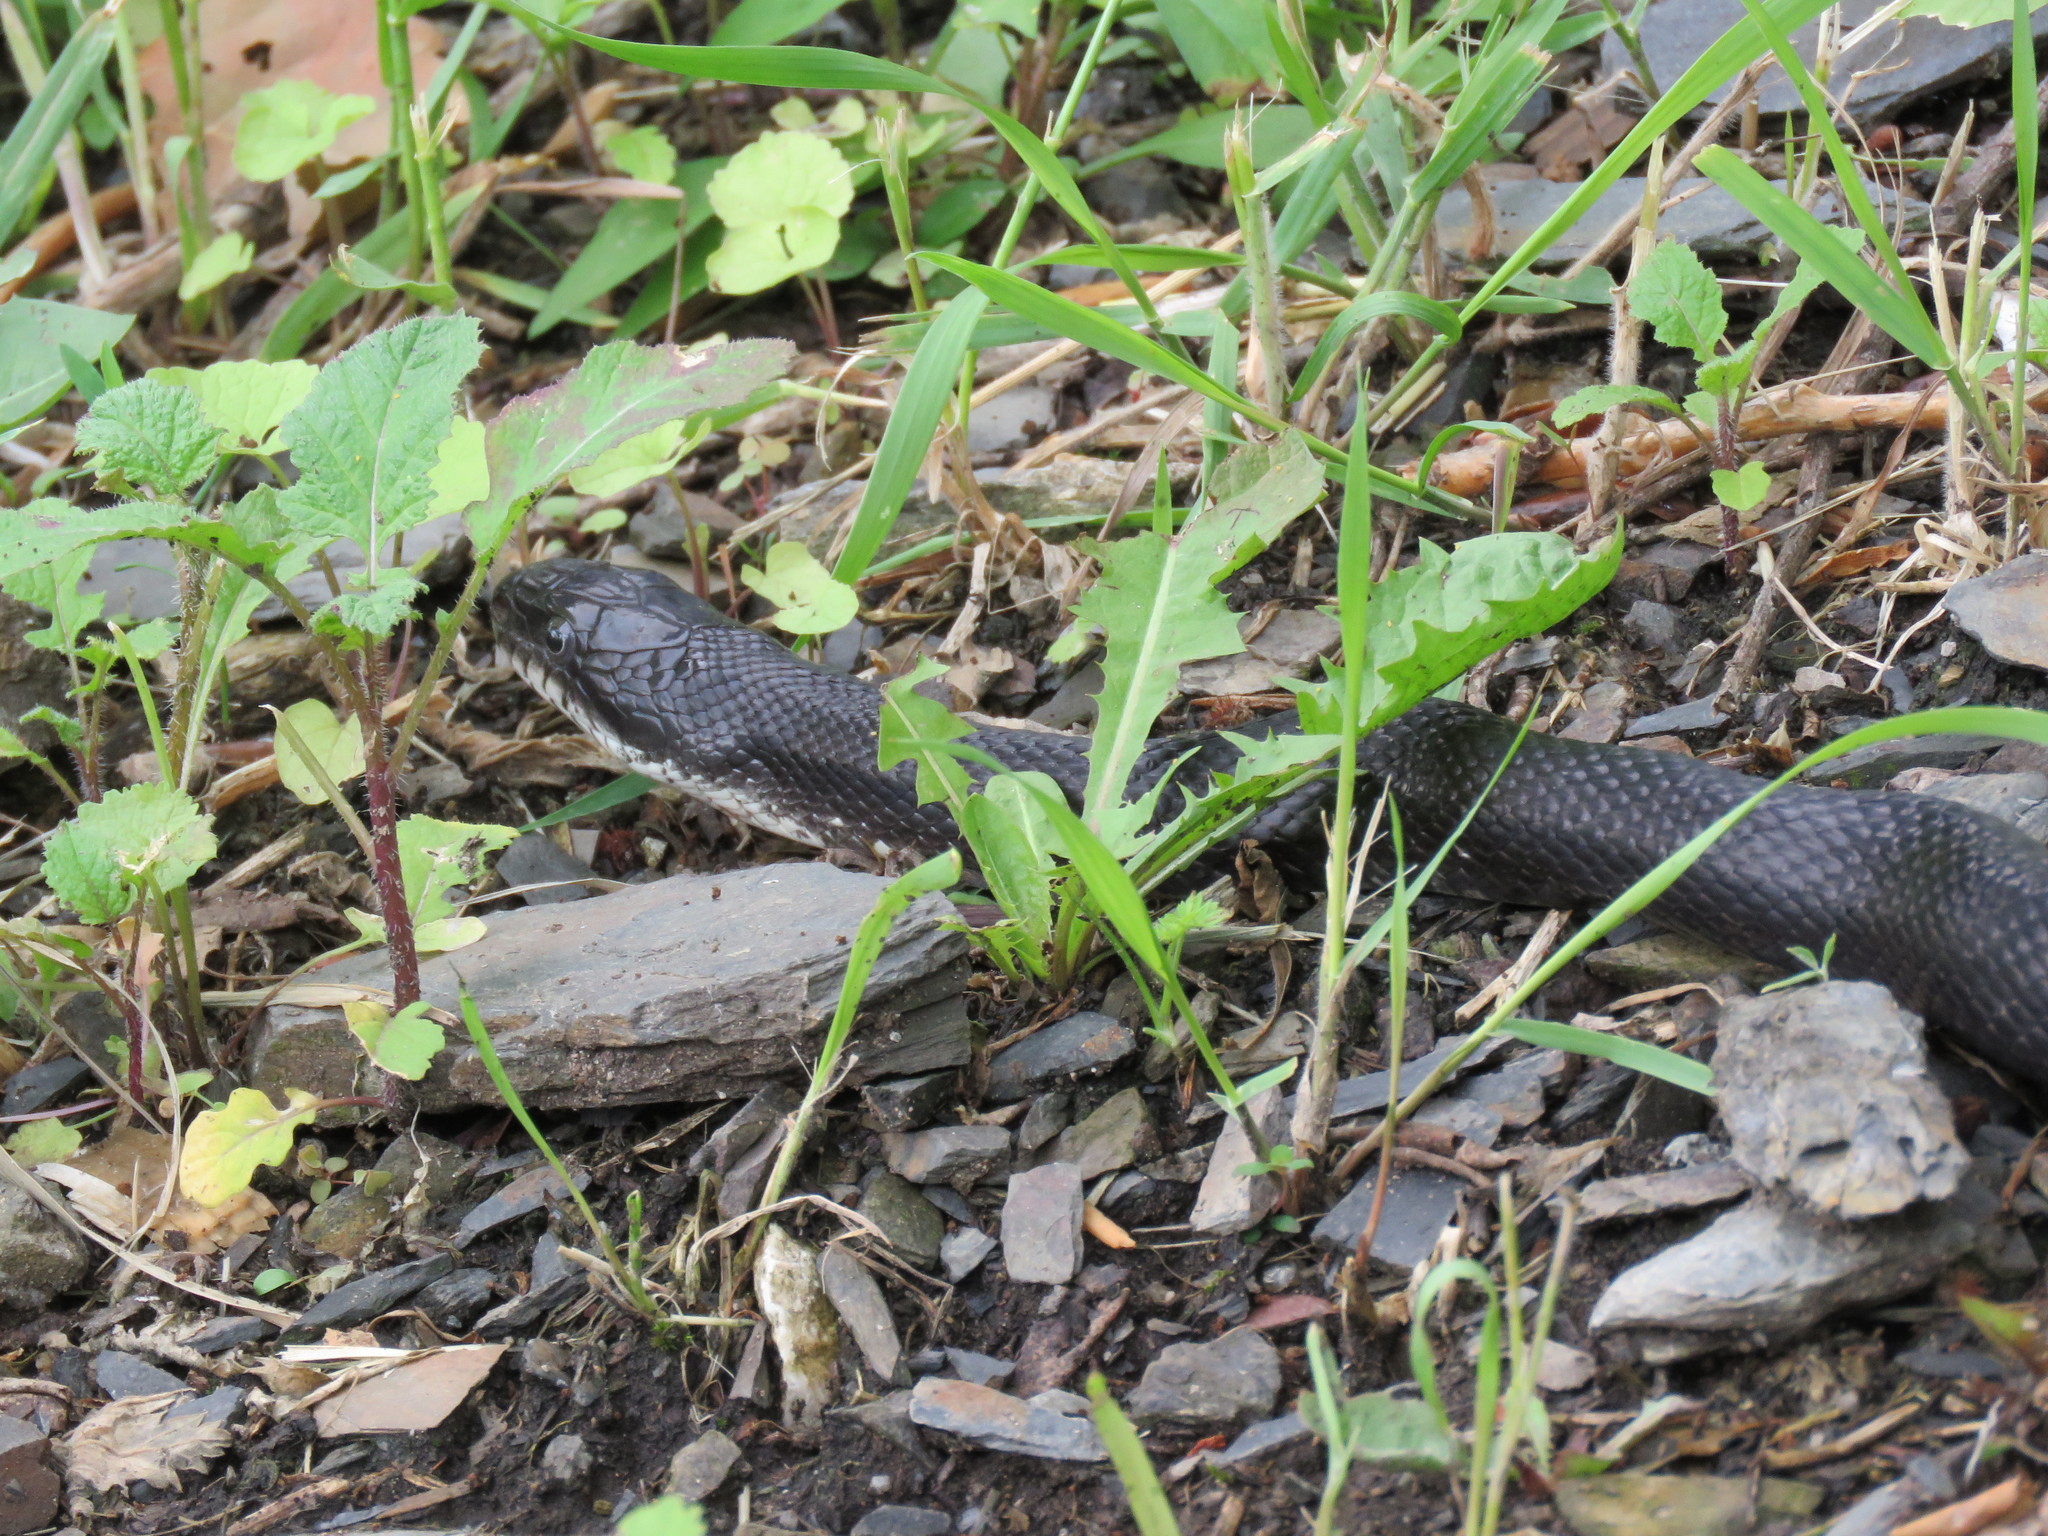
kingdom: Animalia
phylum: Chordata
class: Squamata
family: Colubridae
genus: Pantherophis
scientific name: Pantherophis alleghaniensis
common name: Eastern rat snake
